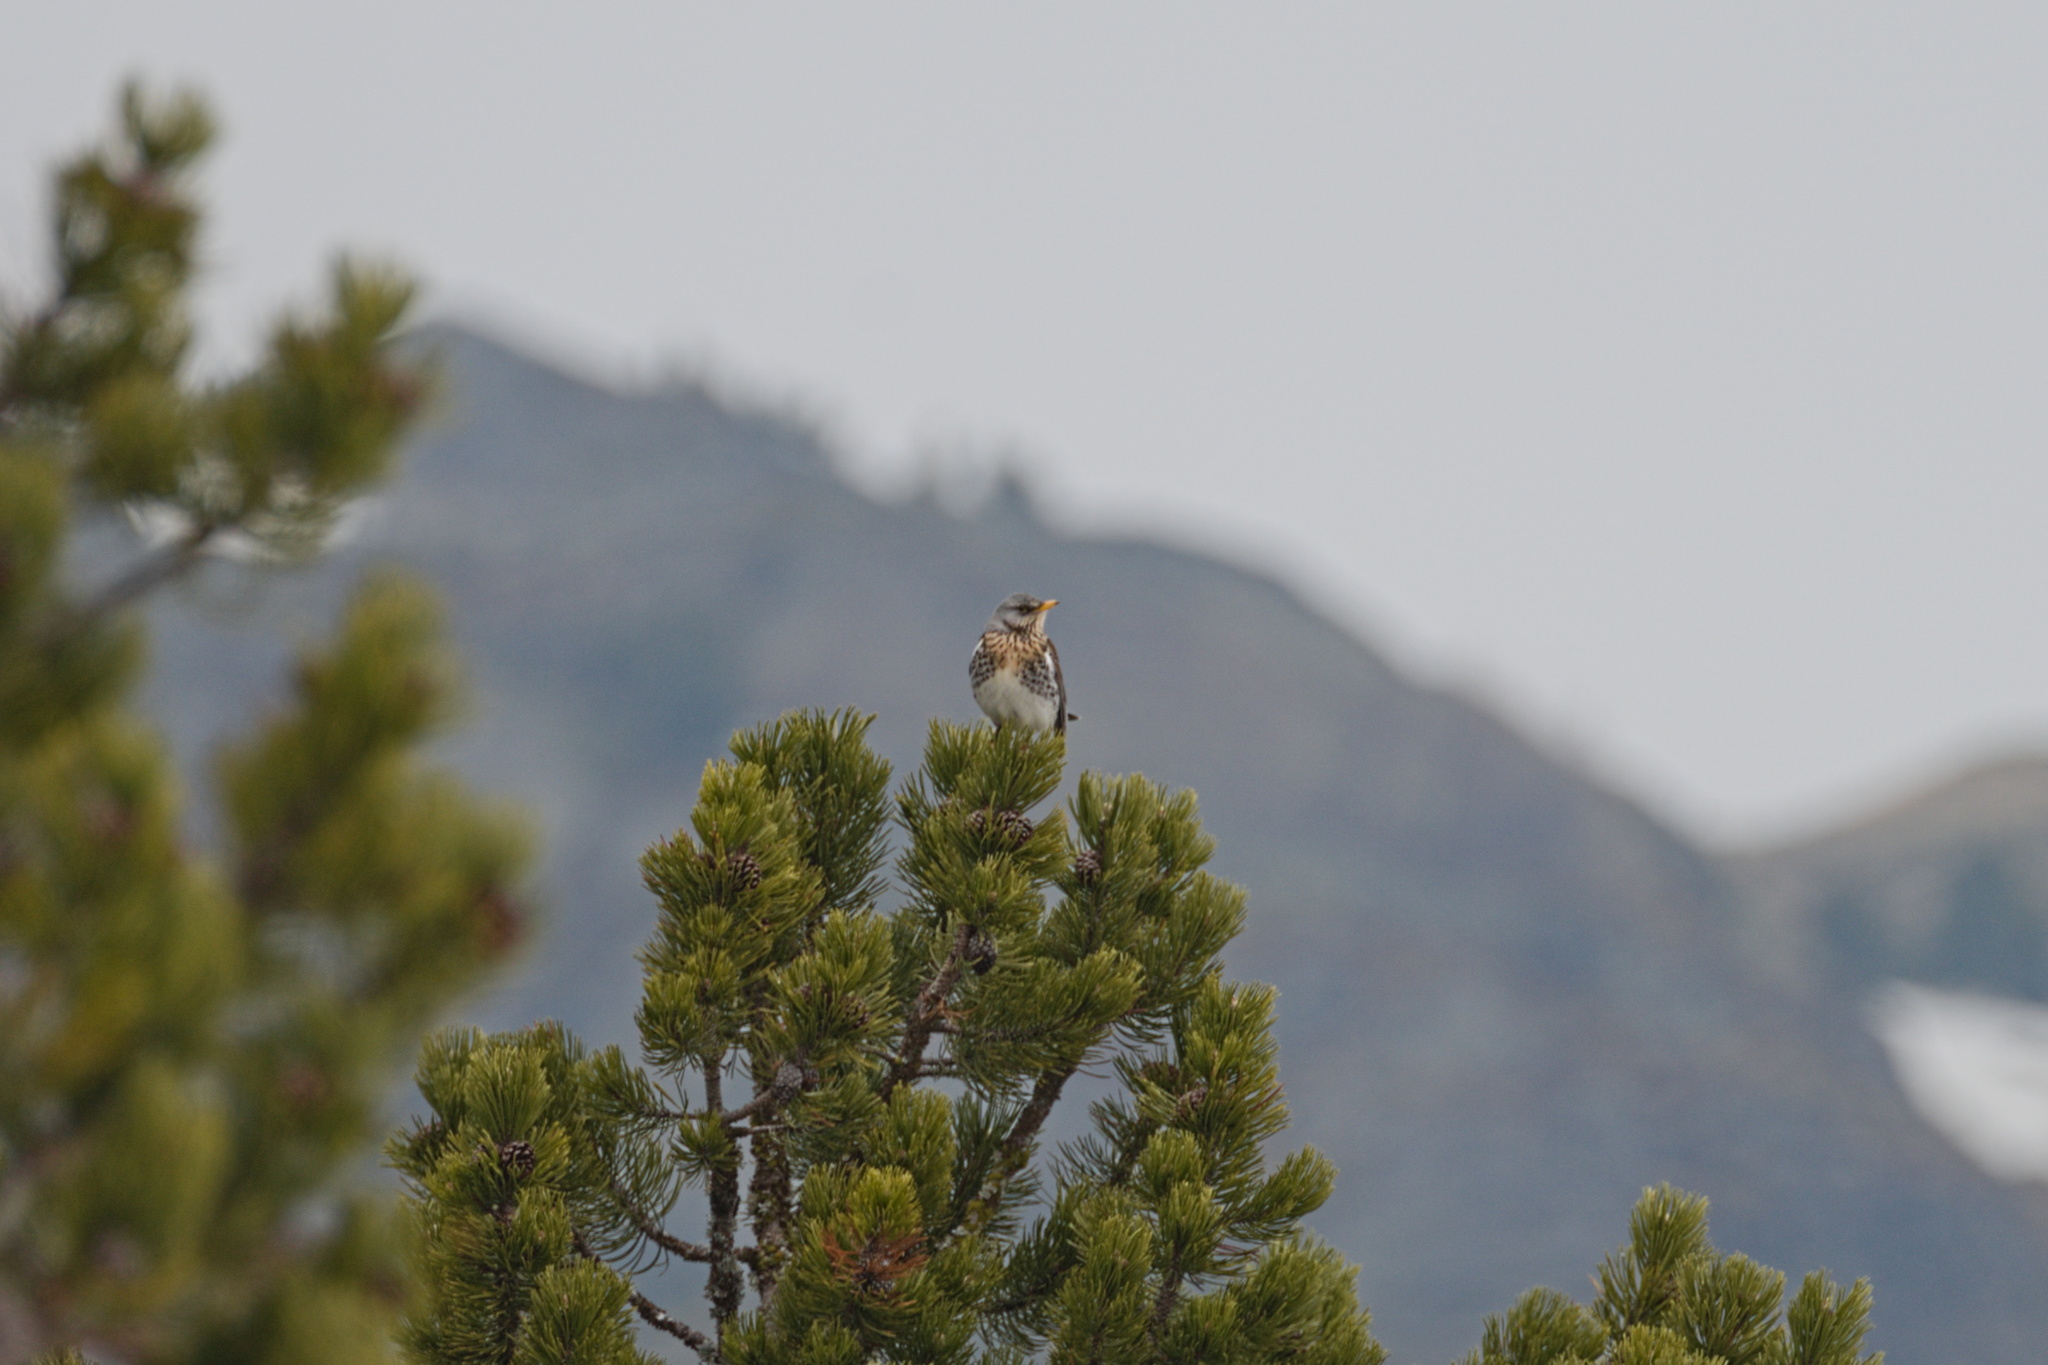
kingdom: Animalia
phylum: Chordata
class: Aves
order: Passeriformes
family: Turdidae
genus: Turdus
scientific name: Turdus pilaris
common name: Fieldfare
